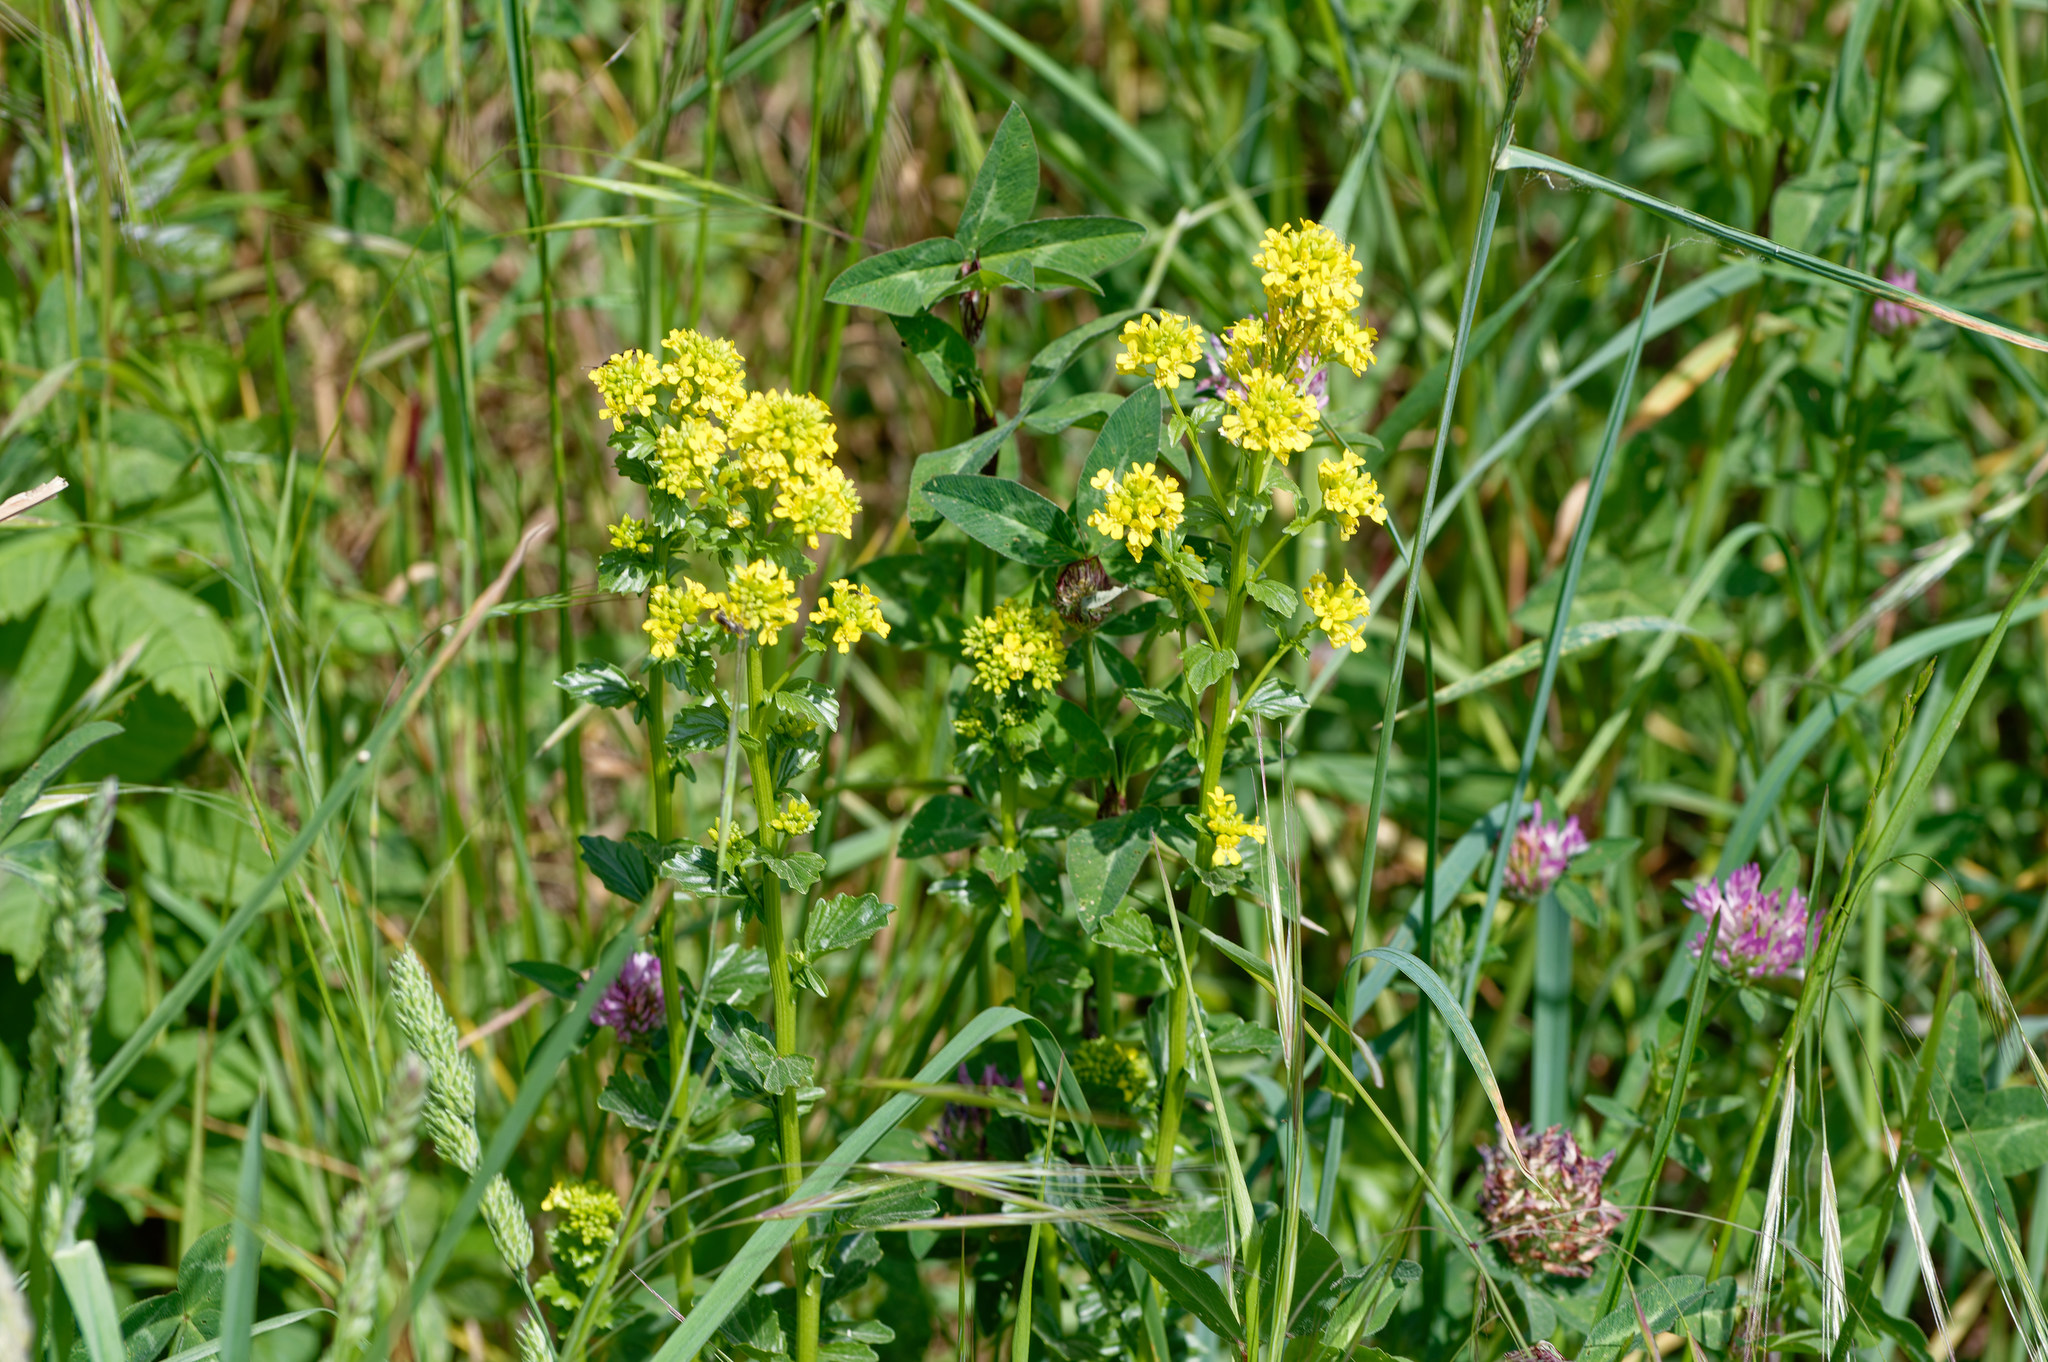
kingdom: Plantae
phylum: Tracheophyta
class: Magnoliopsida
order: Brassicales
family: Brassicaceae
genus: Barbarea
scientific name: Barbarea vulgaris
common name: Cressy-greens
